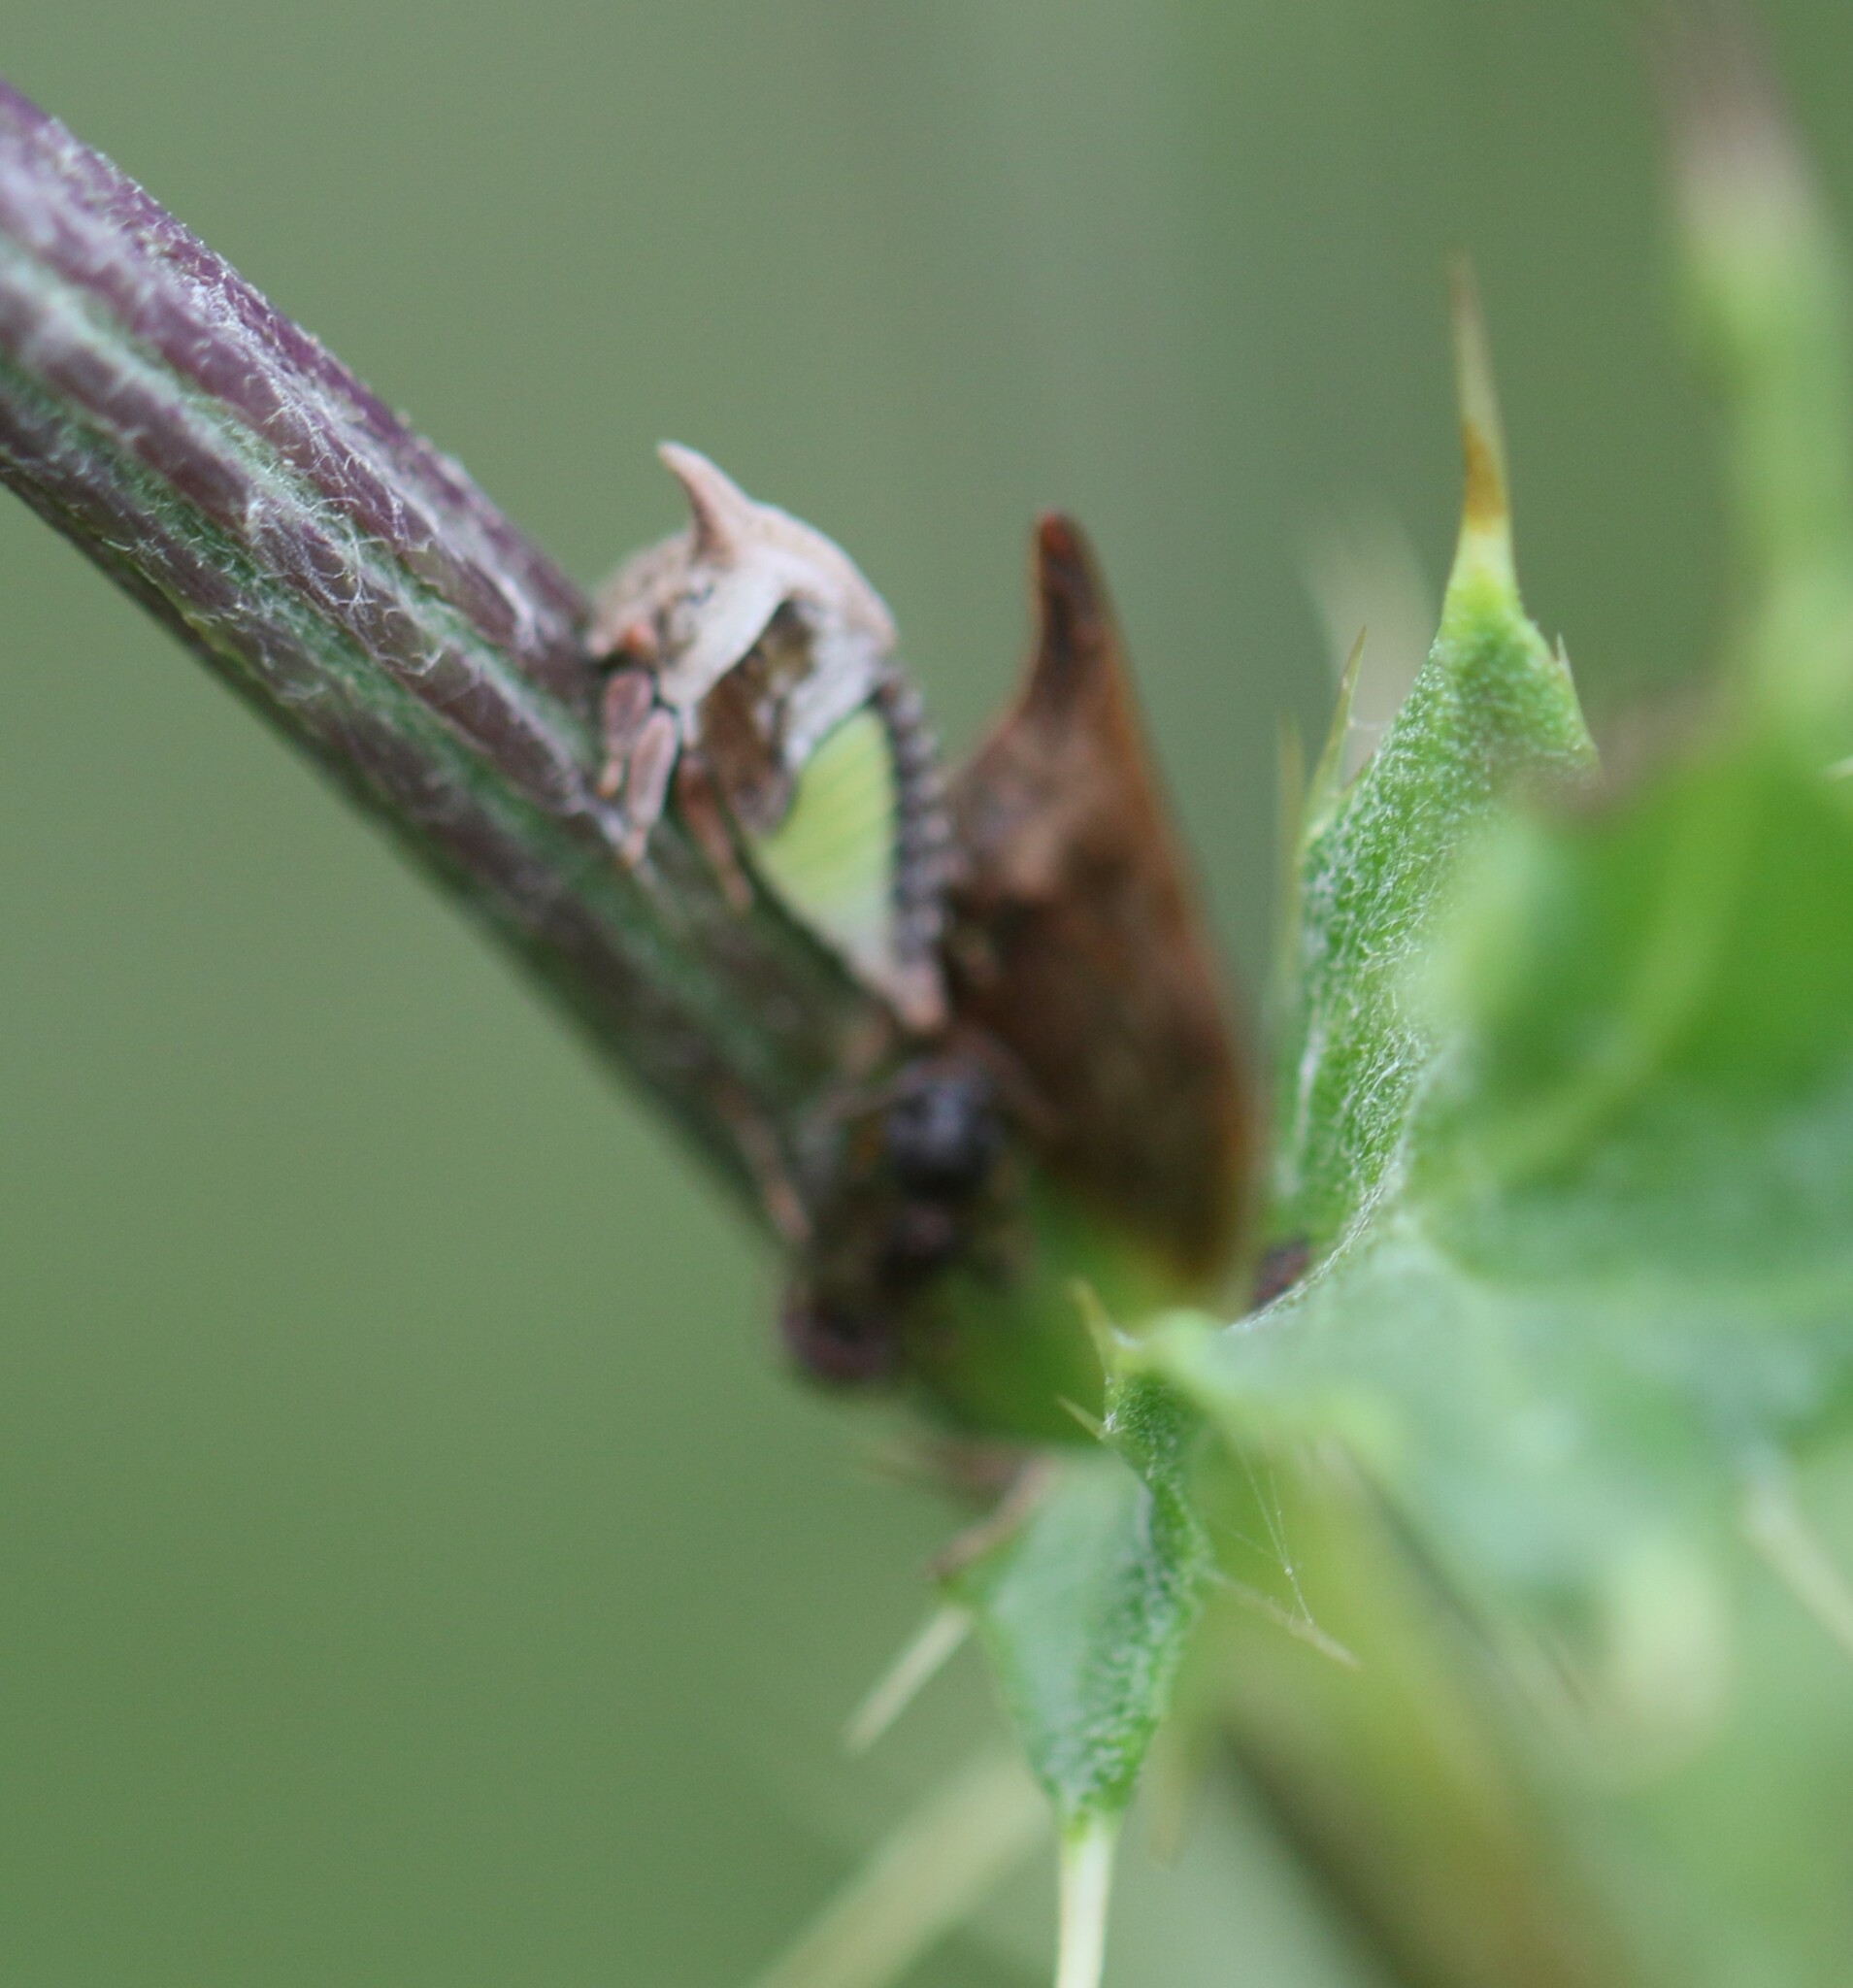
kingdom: Animalia
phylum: Arthropoda
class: Insecta
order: Hemiptera
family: Membracidae
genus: Enchenopa
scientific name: Enchenopa latipes
